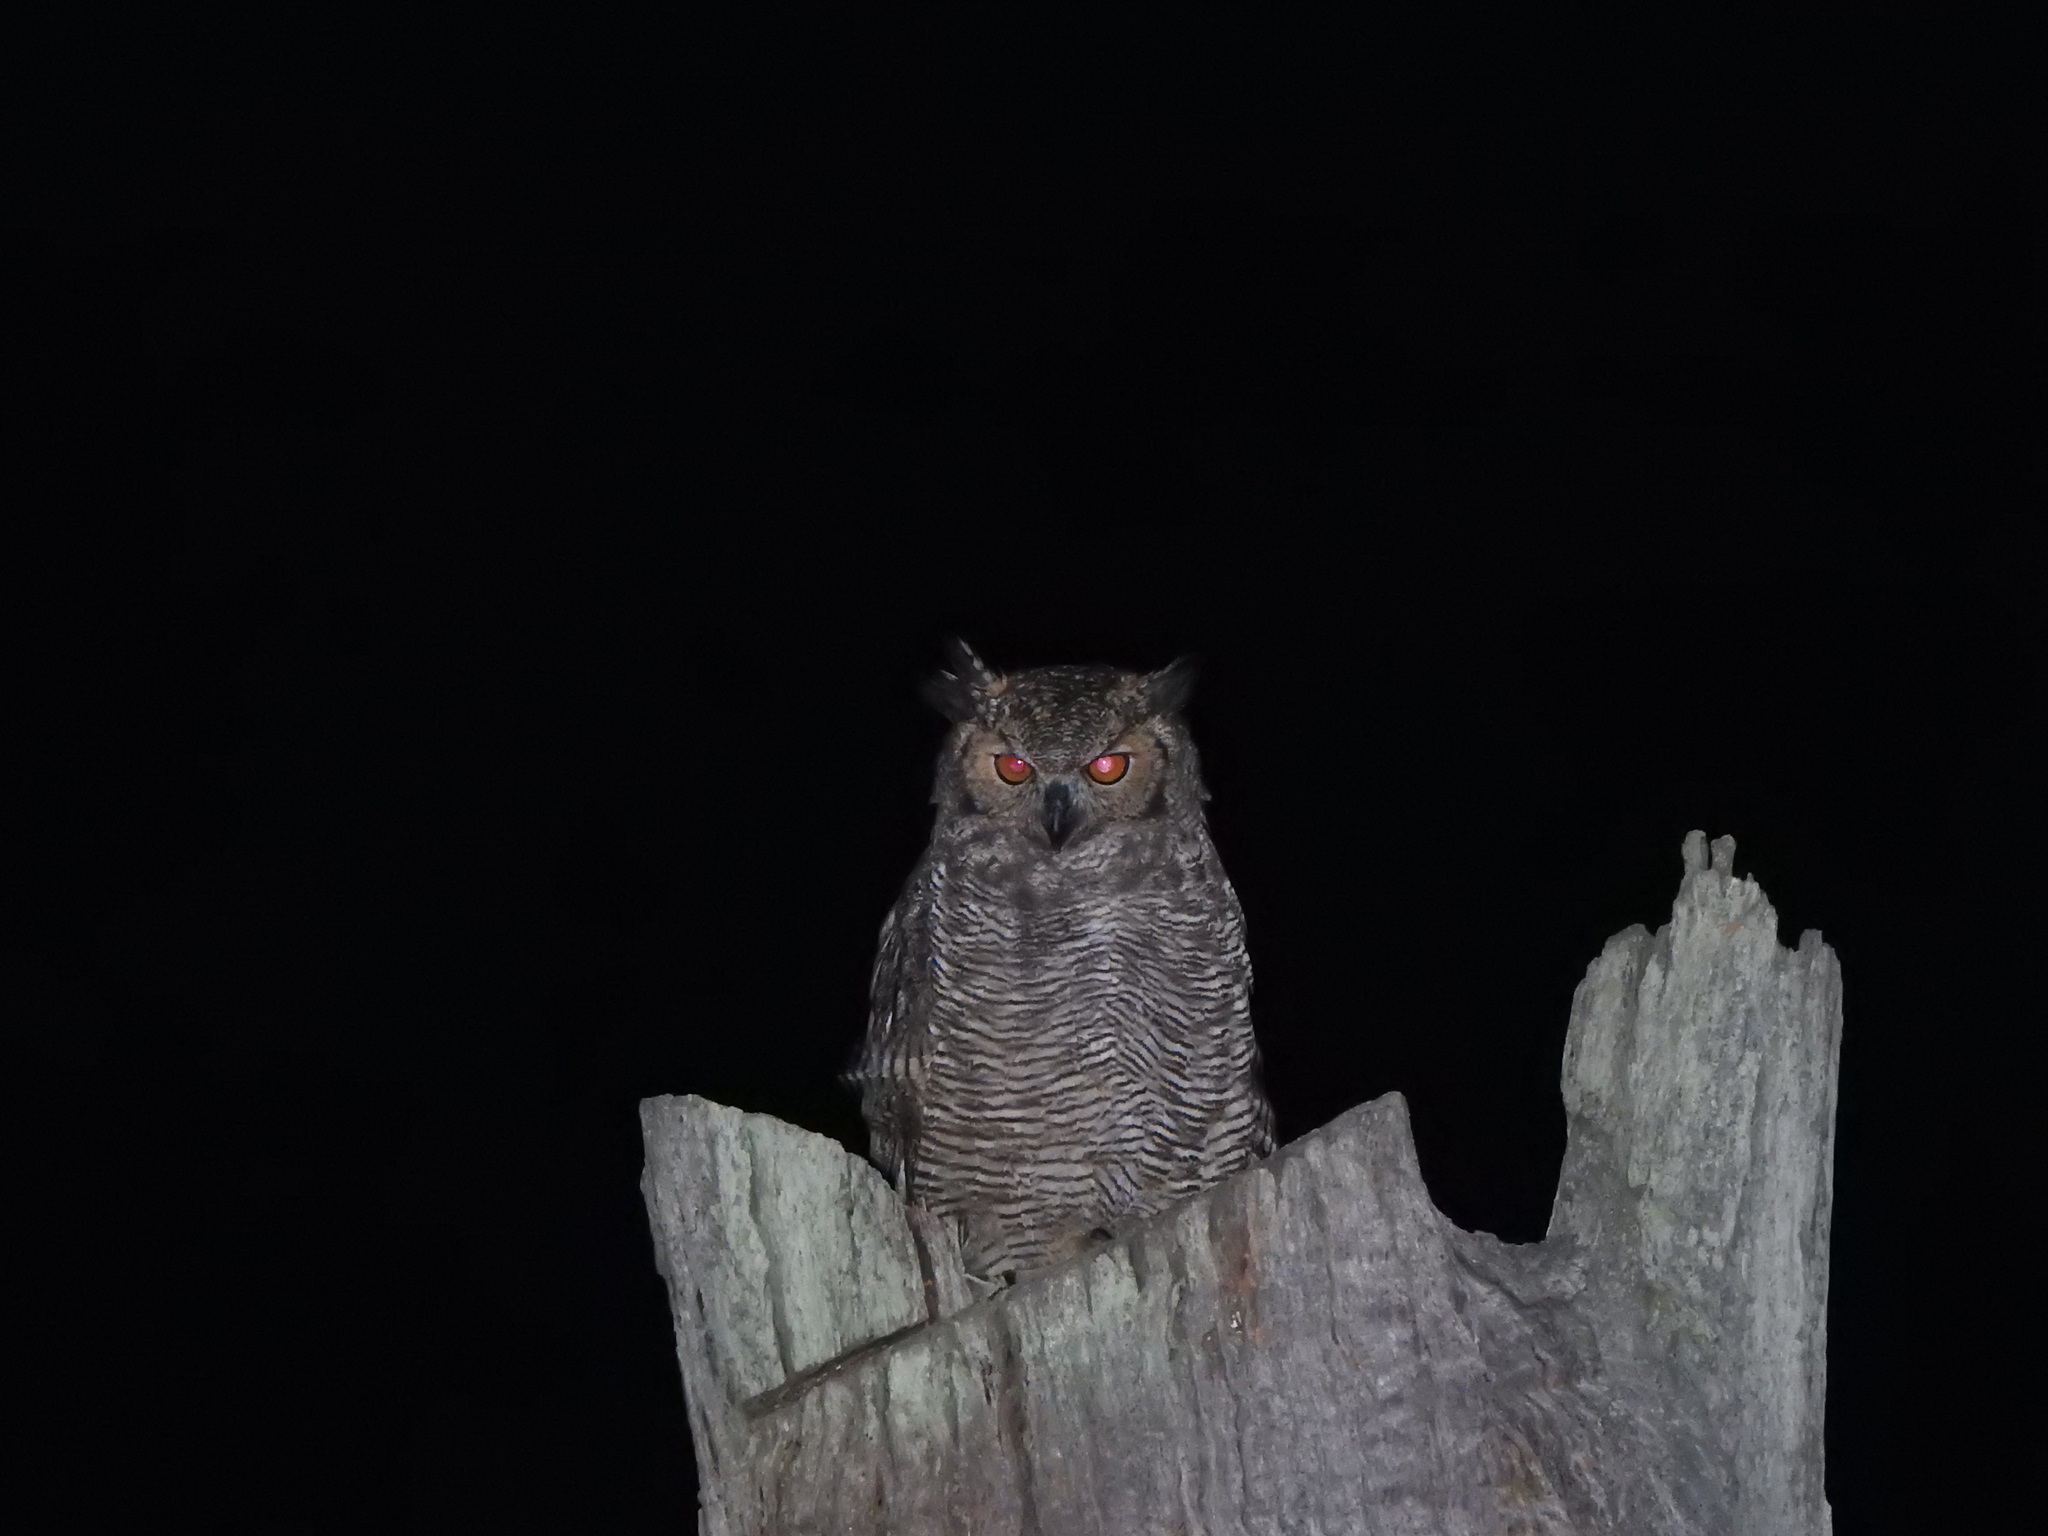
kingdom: Animalia
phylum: Chordata
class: Aves
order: Strigiformes
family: Strigidae
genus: Bubo
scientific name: Bubo virginianus
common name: Great horned owl
